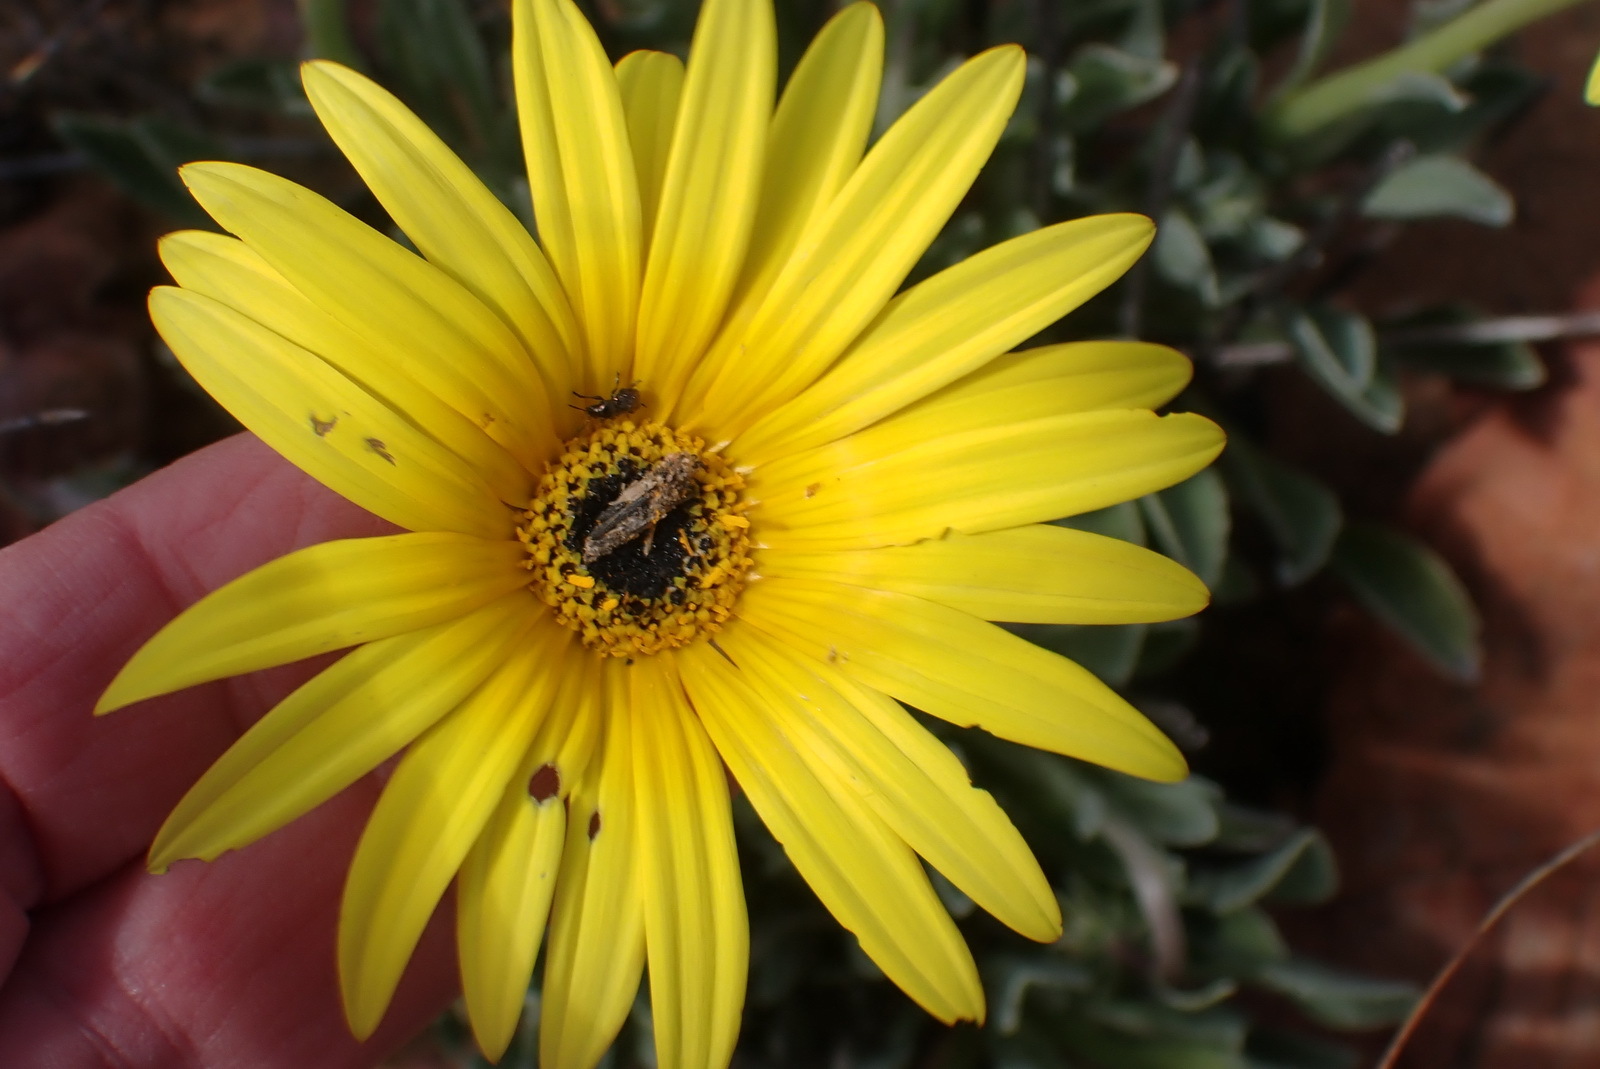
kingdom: Plantae
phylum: Tracheophyta
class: Magnoliopsida
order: Asterales
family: Asteraceae
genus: Arctotis
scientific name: Arctotis lanceolata
